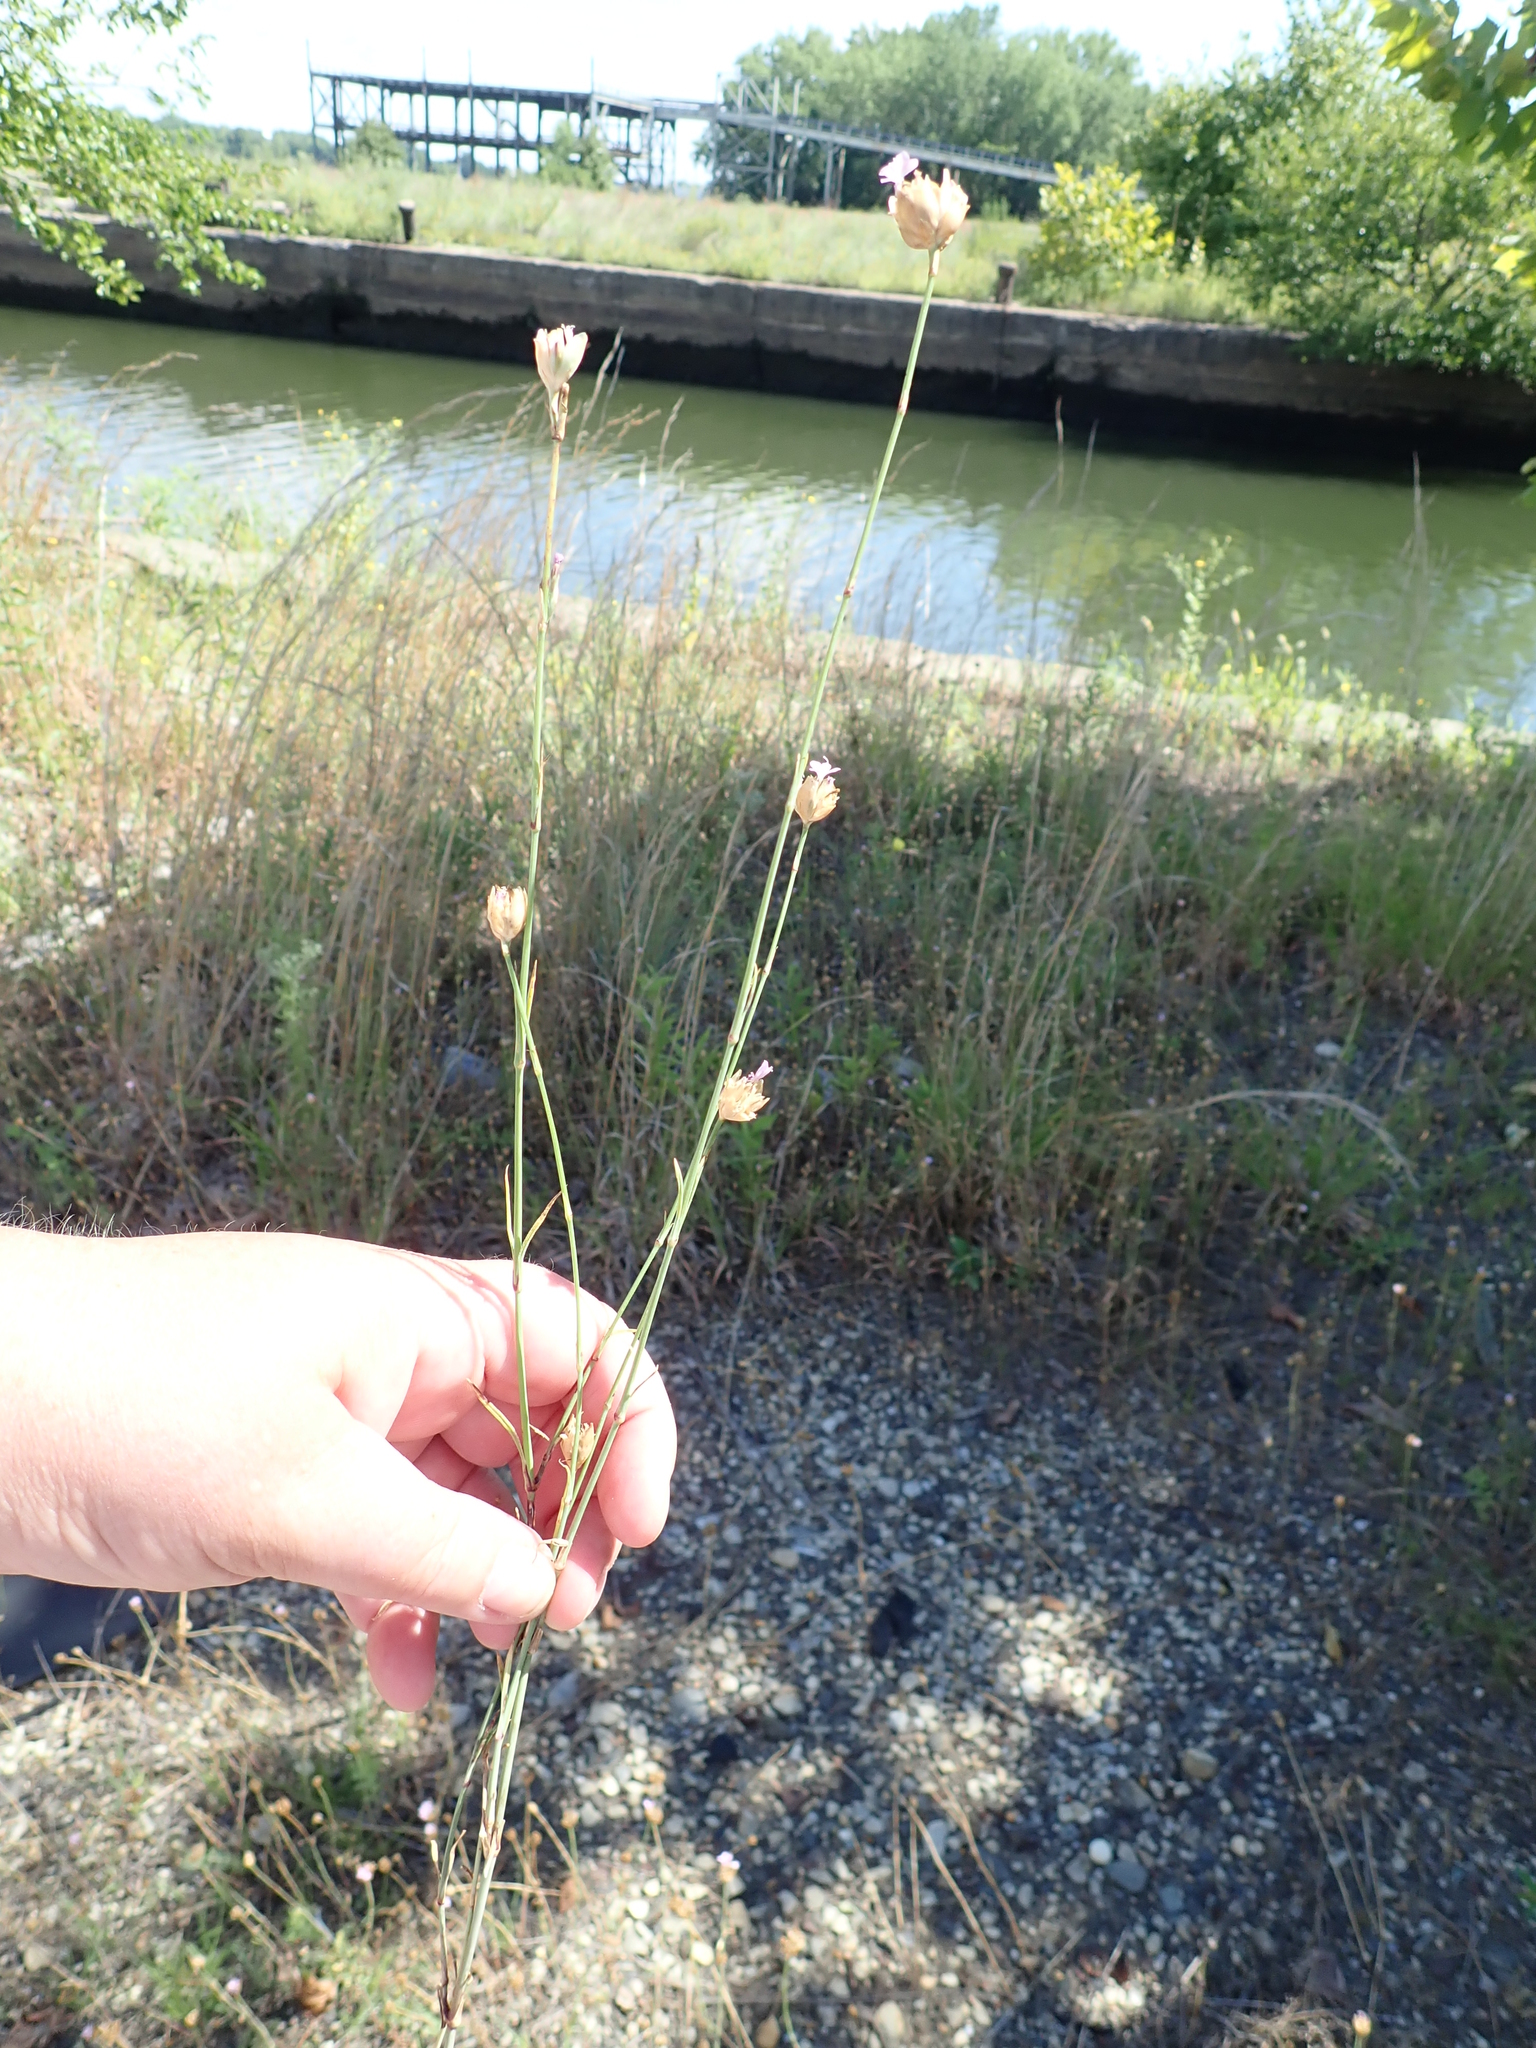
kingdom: Plantae
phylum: Tracheophyta
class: Magnoliopsida
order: Caryophyllales
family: Caryophyllaceae
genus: Petrorhagia
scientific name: Petrorhagia prolifera
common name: Proliferous pink
